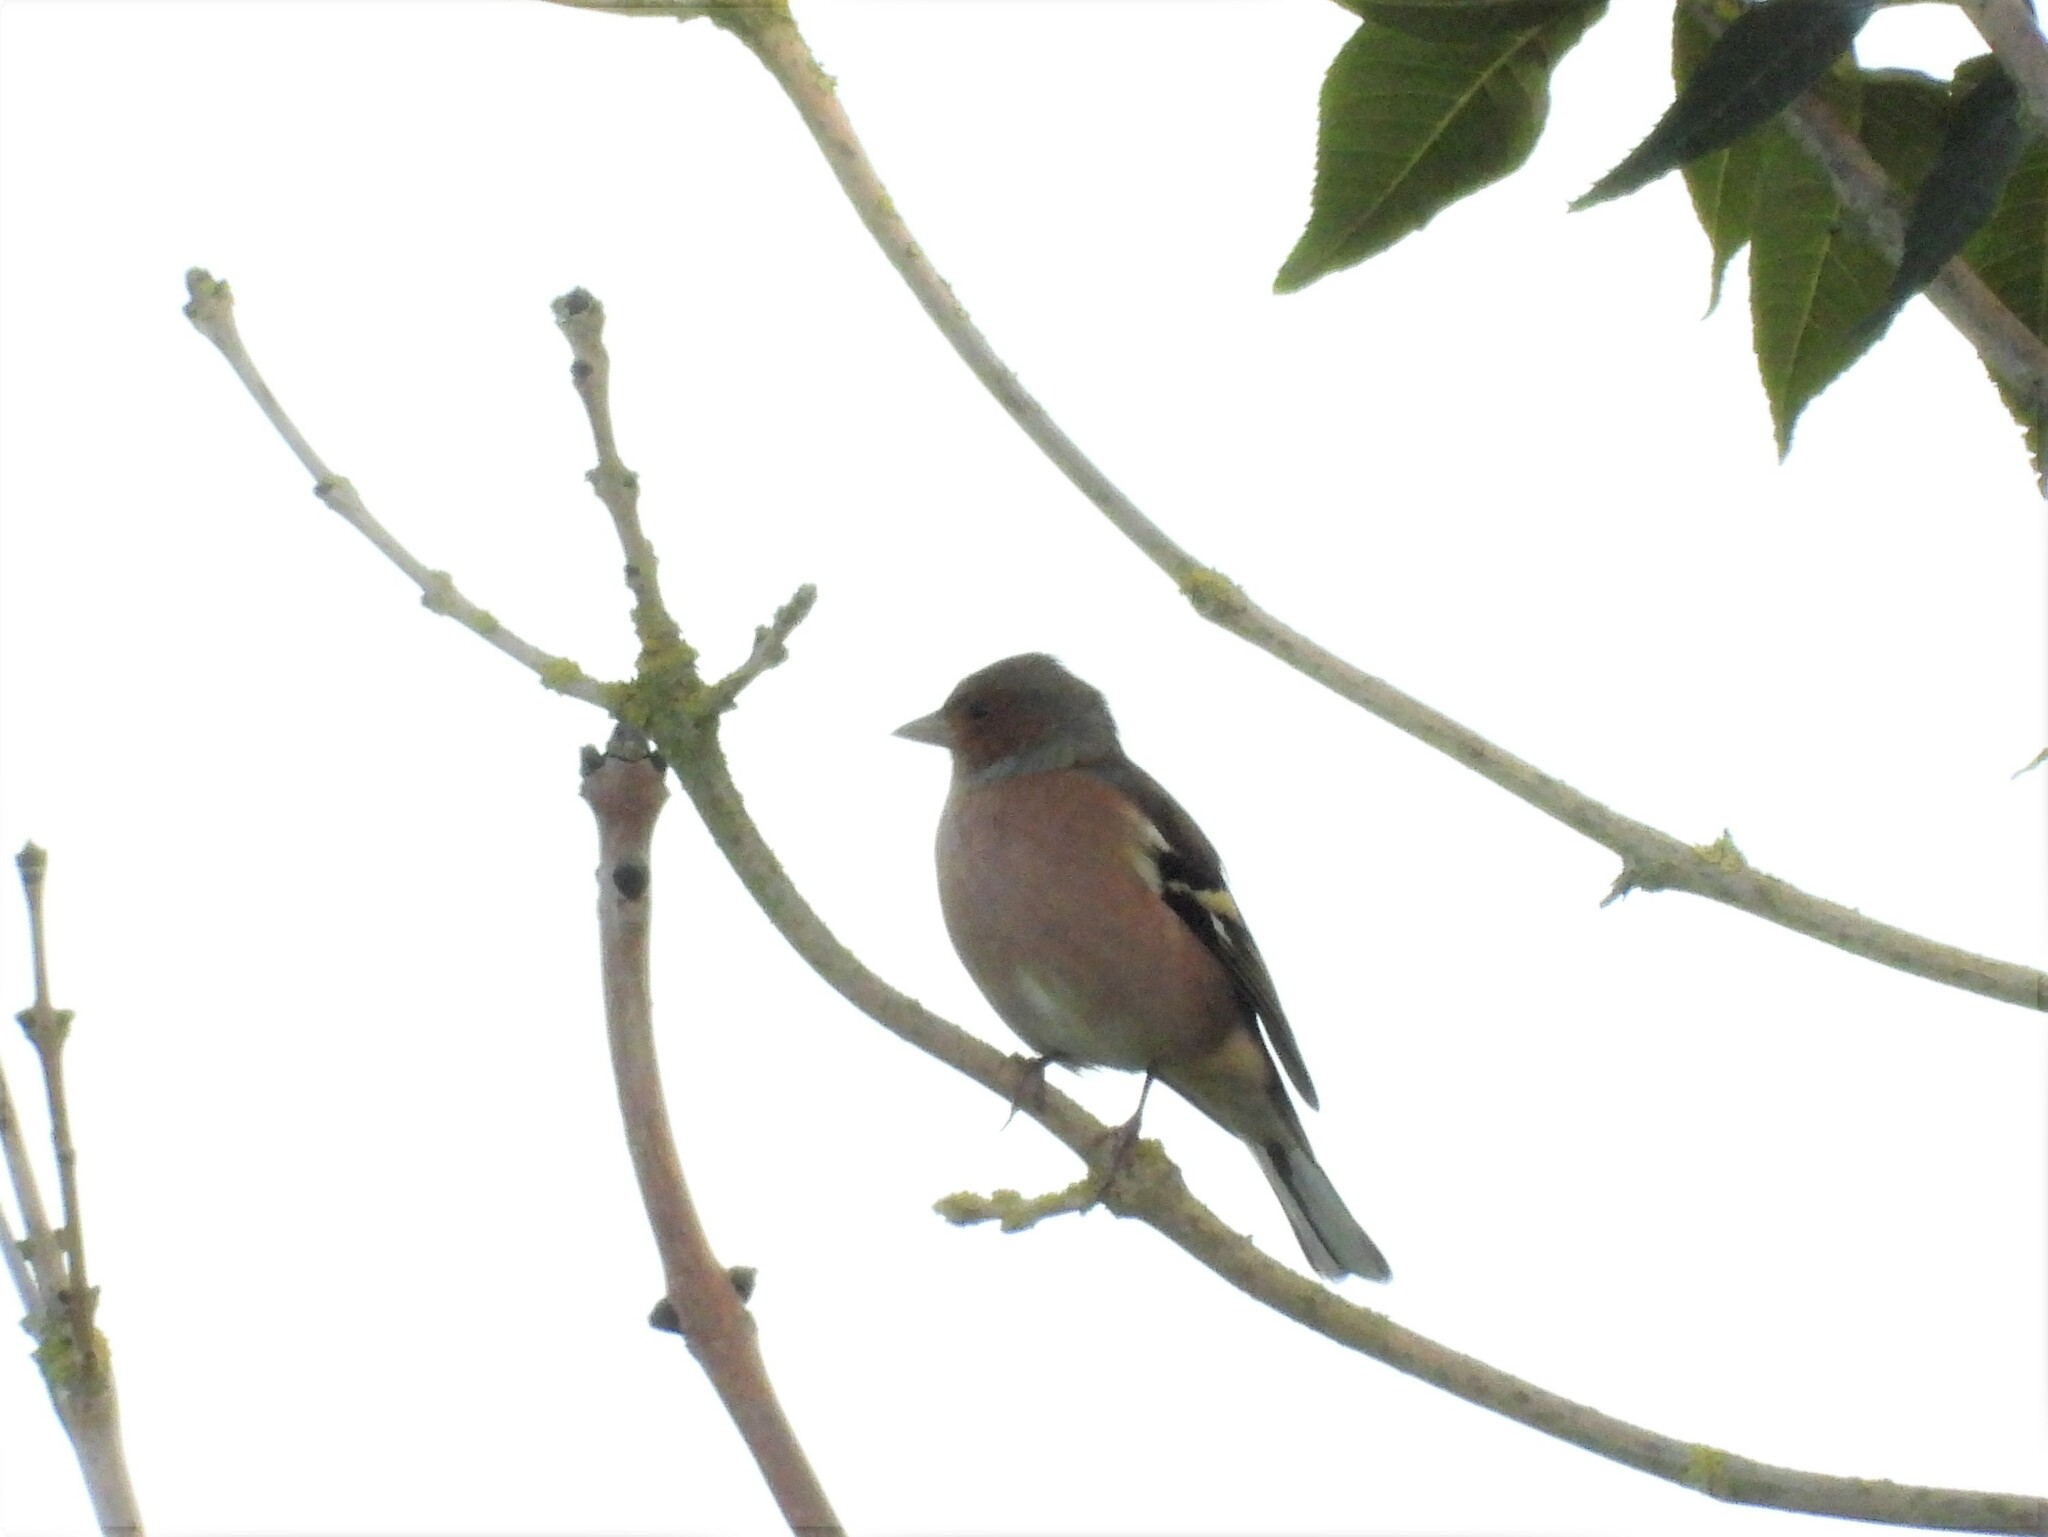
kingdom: Animalia
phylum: Chordata
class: Aves
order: Passeriformes
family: Fringillidae
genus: Fringilla
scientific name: Fringilla coelebs
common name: Common chaffinch
